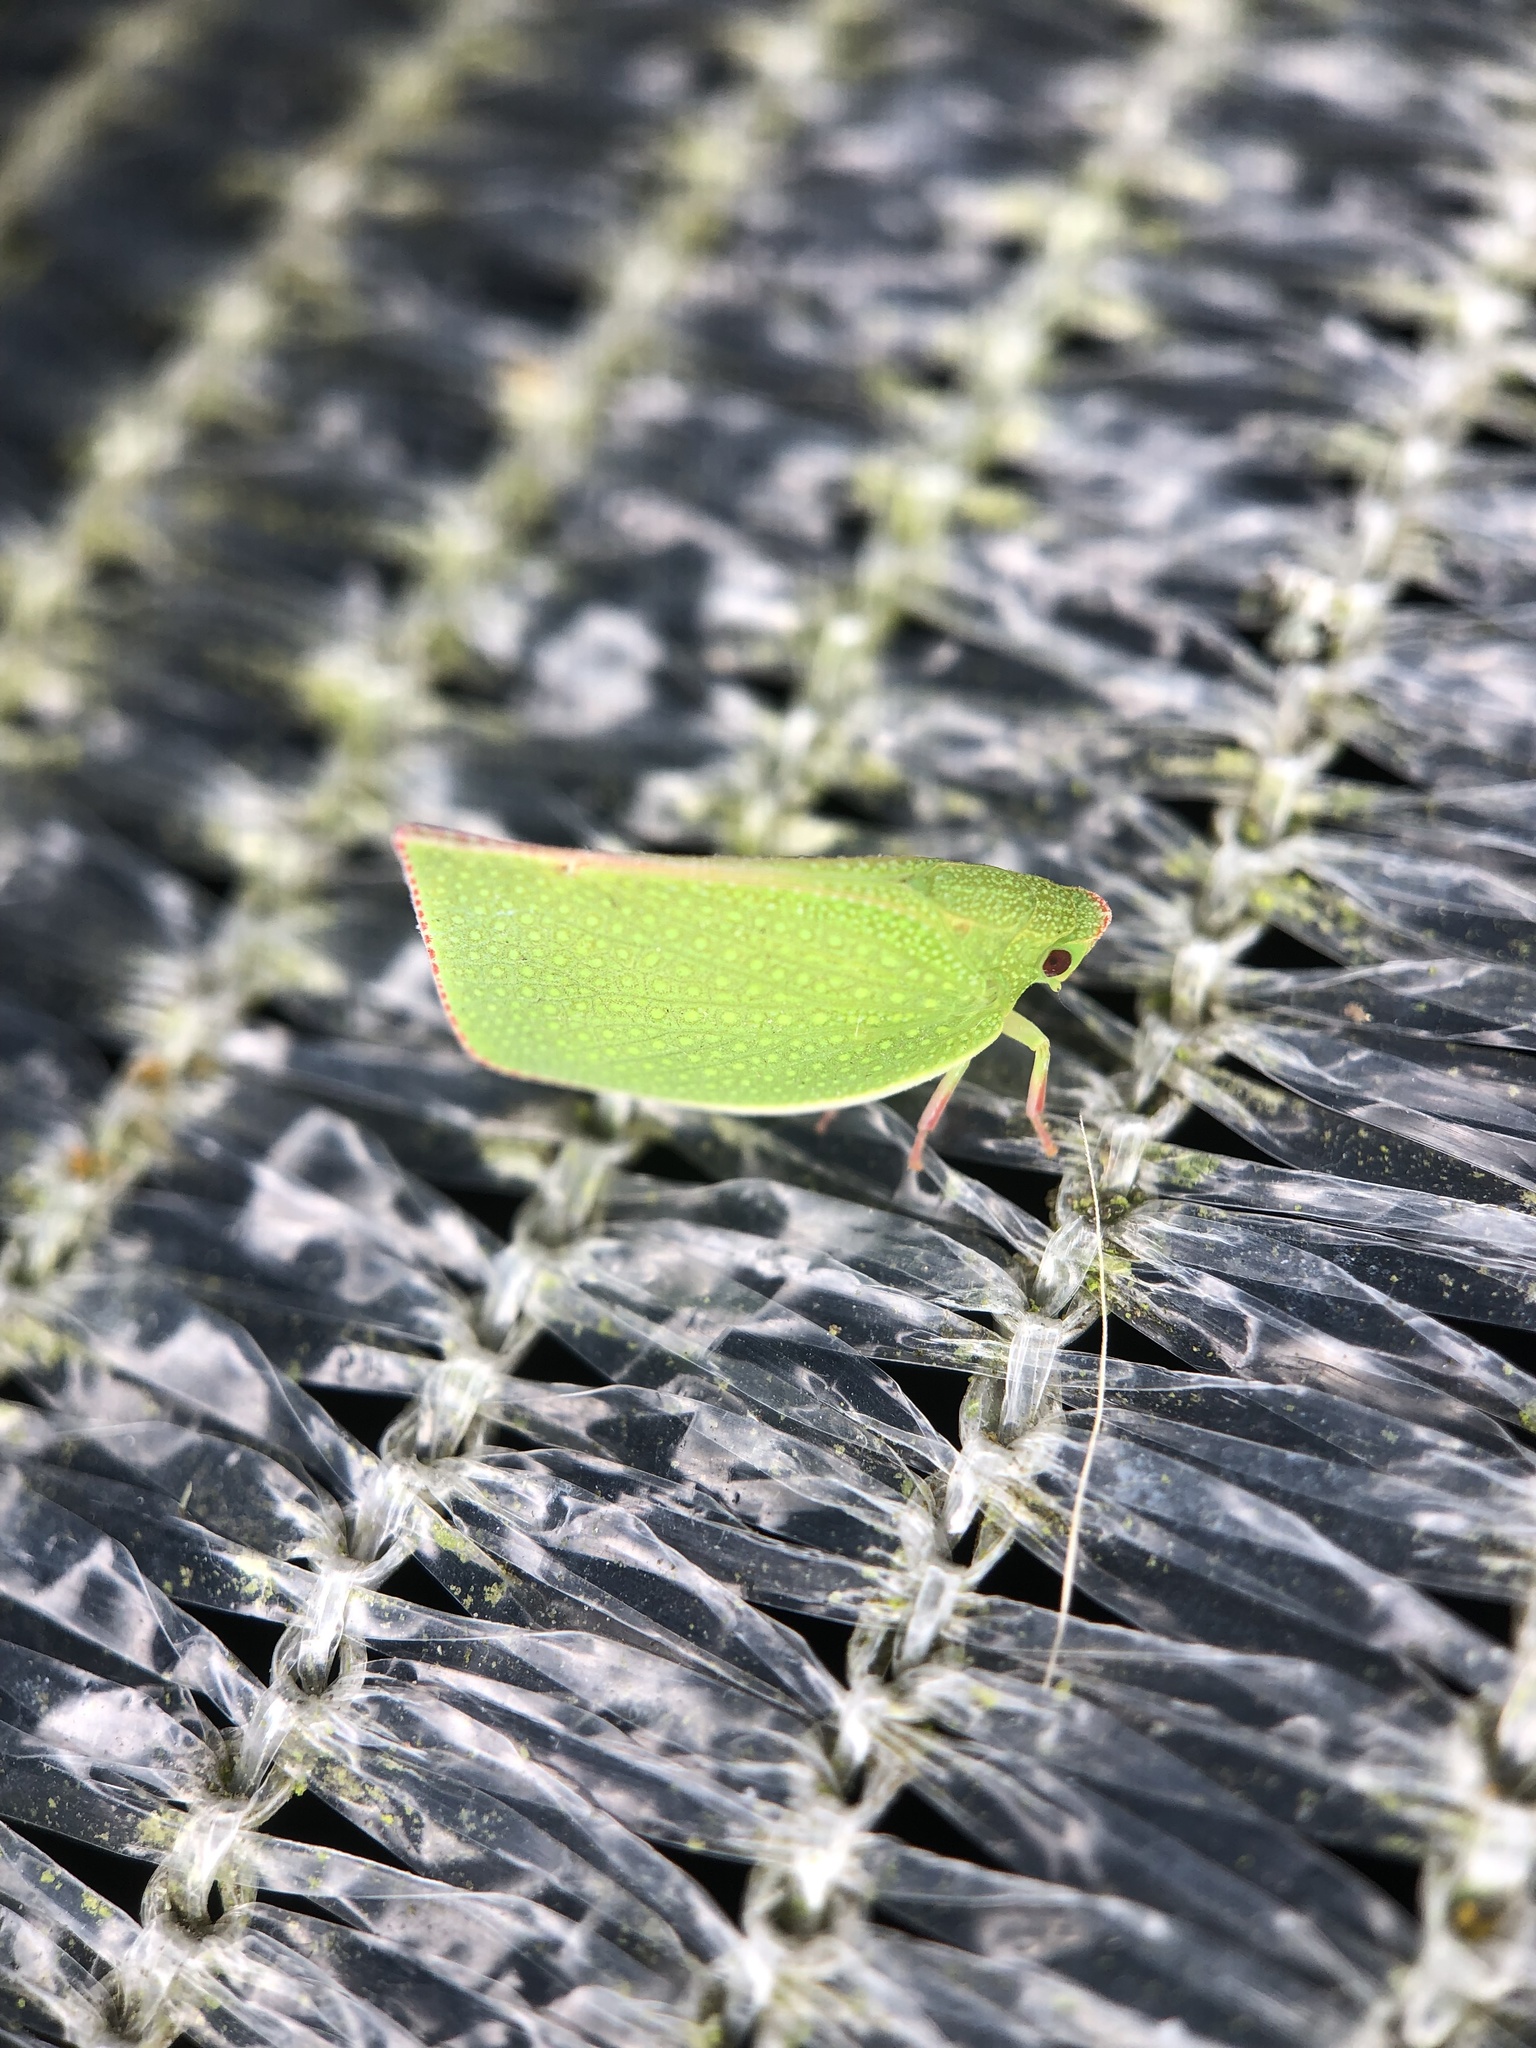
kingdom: Animalia
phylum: Arthropoda
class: Insecta
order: Hemiptera
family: Flatidae
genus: Siphanta
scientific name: Siphanta acuta
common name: Torpedo bug
